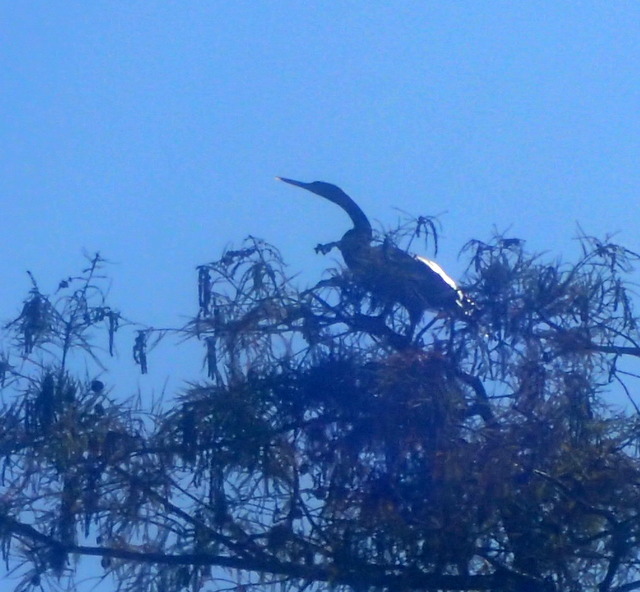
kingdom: Animalia
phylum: Chordata
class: Aves
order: Suliformes
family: Anhingidae
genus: Anhinga
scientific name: Anhinga anhinga
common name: Anhinga
